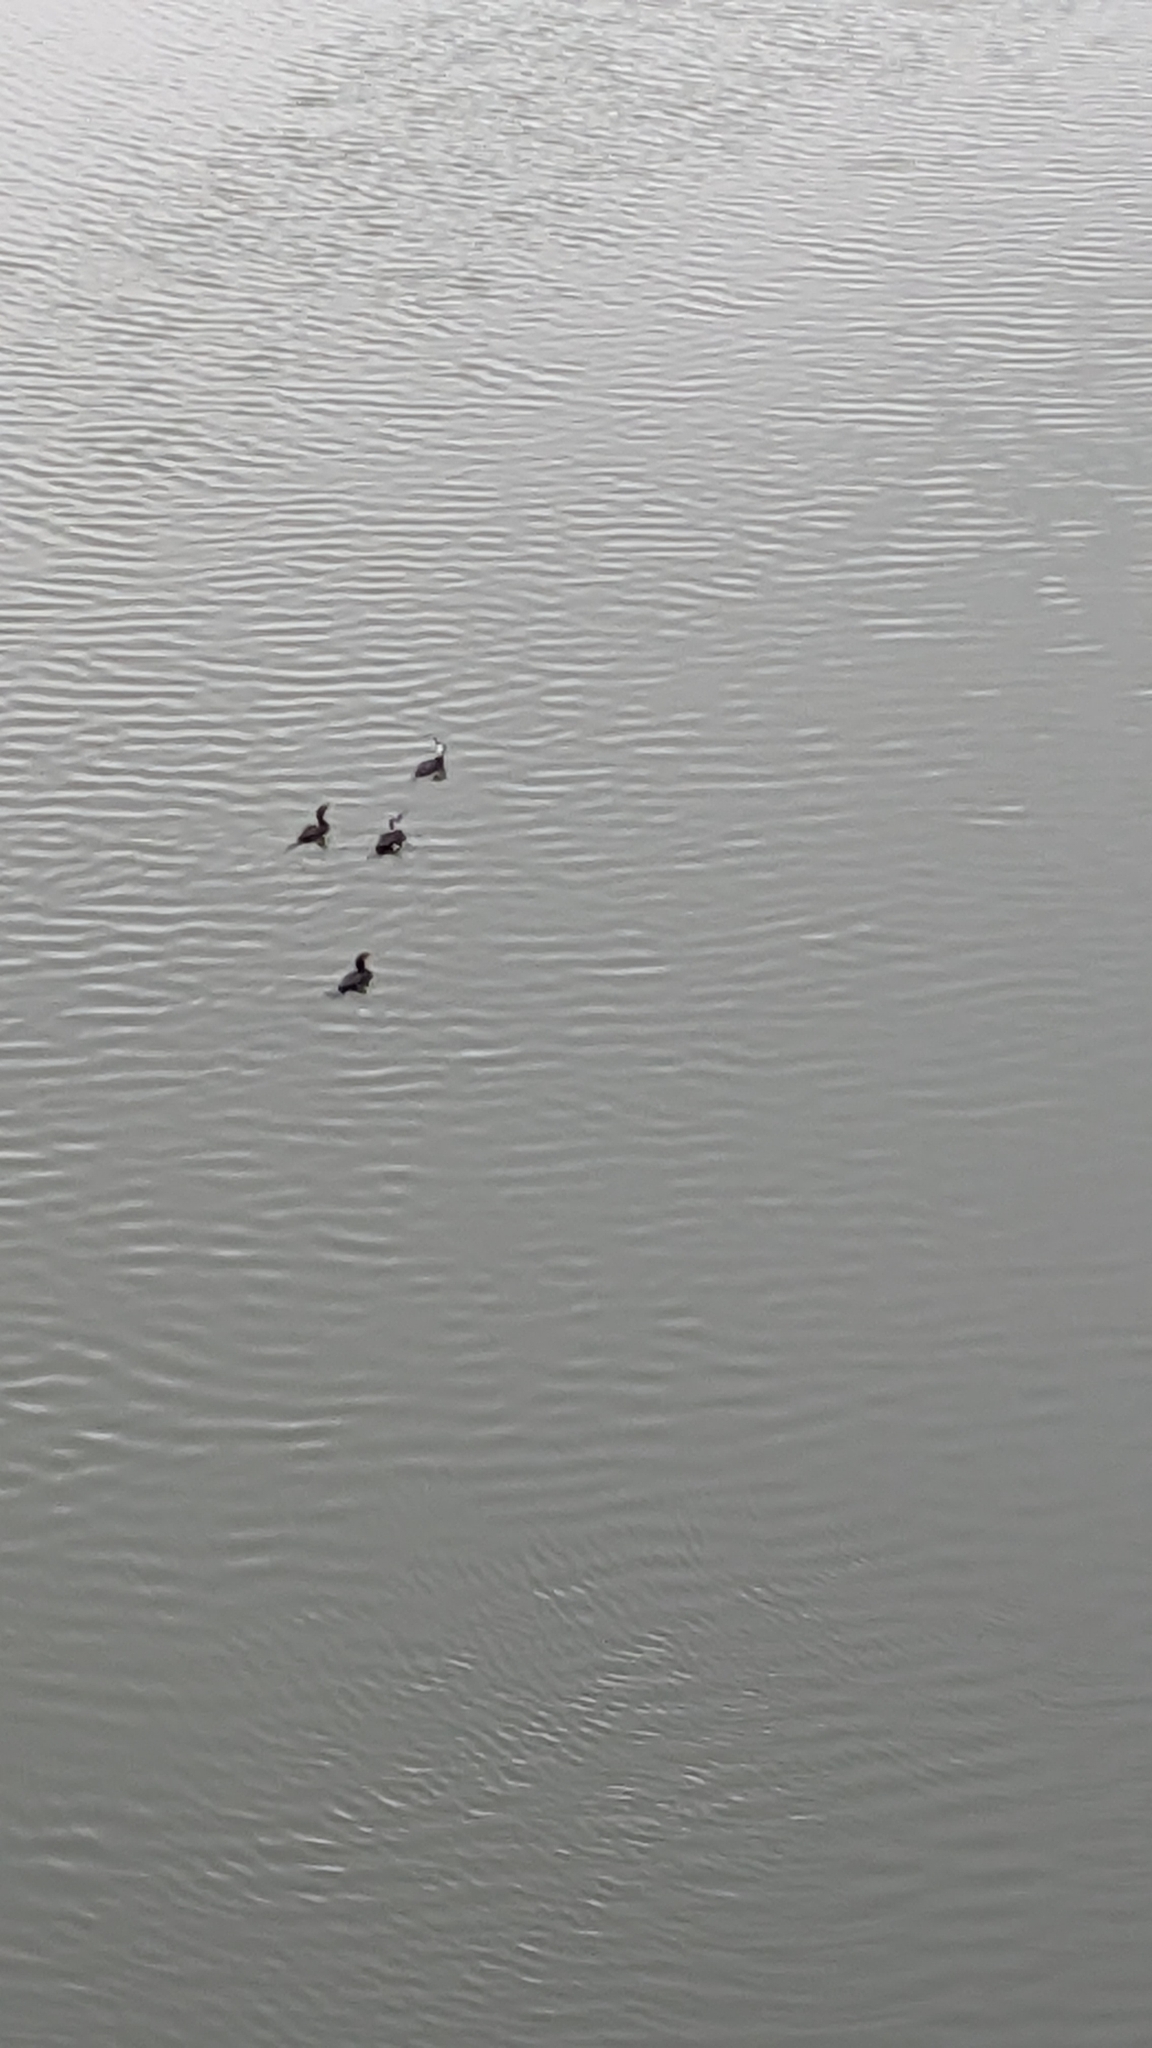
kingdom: Animalia
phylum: Chordata
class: Aves
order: Suliformes
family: Phalacrocoracidae
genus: Phalacrocorax
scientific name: Phalacrocorax carbo
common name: Great cormorant
